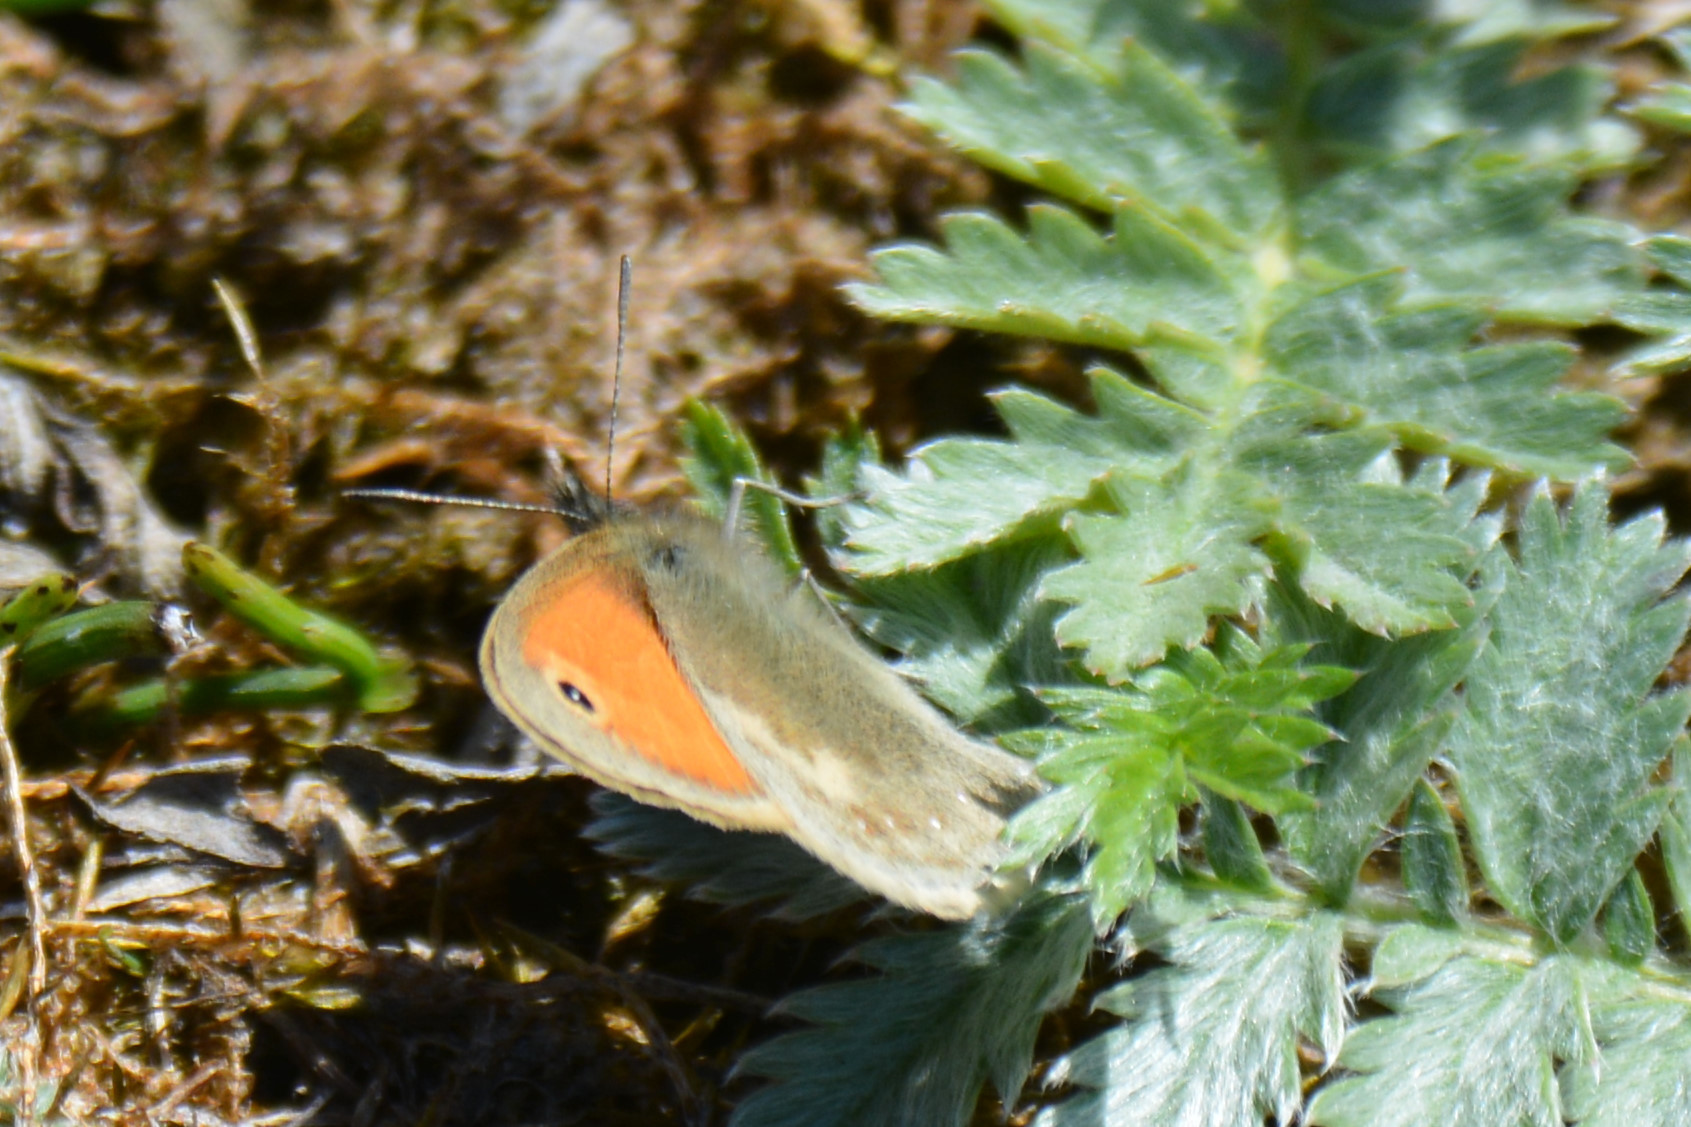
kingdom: Animalia
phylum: Arthropoda
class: Insecta
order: Lepidoptera
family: Nymphalidae
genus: Coenonympha
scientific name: Coenonympha pamphilus
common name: Small heath
